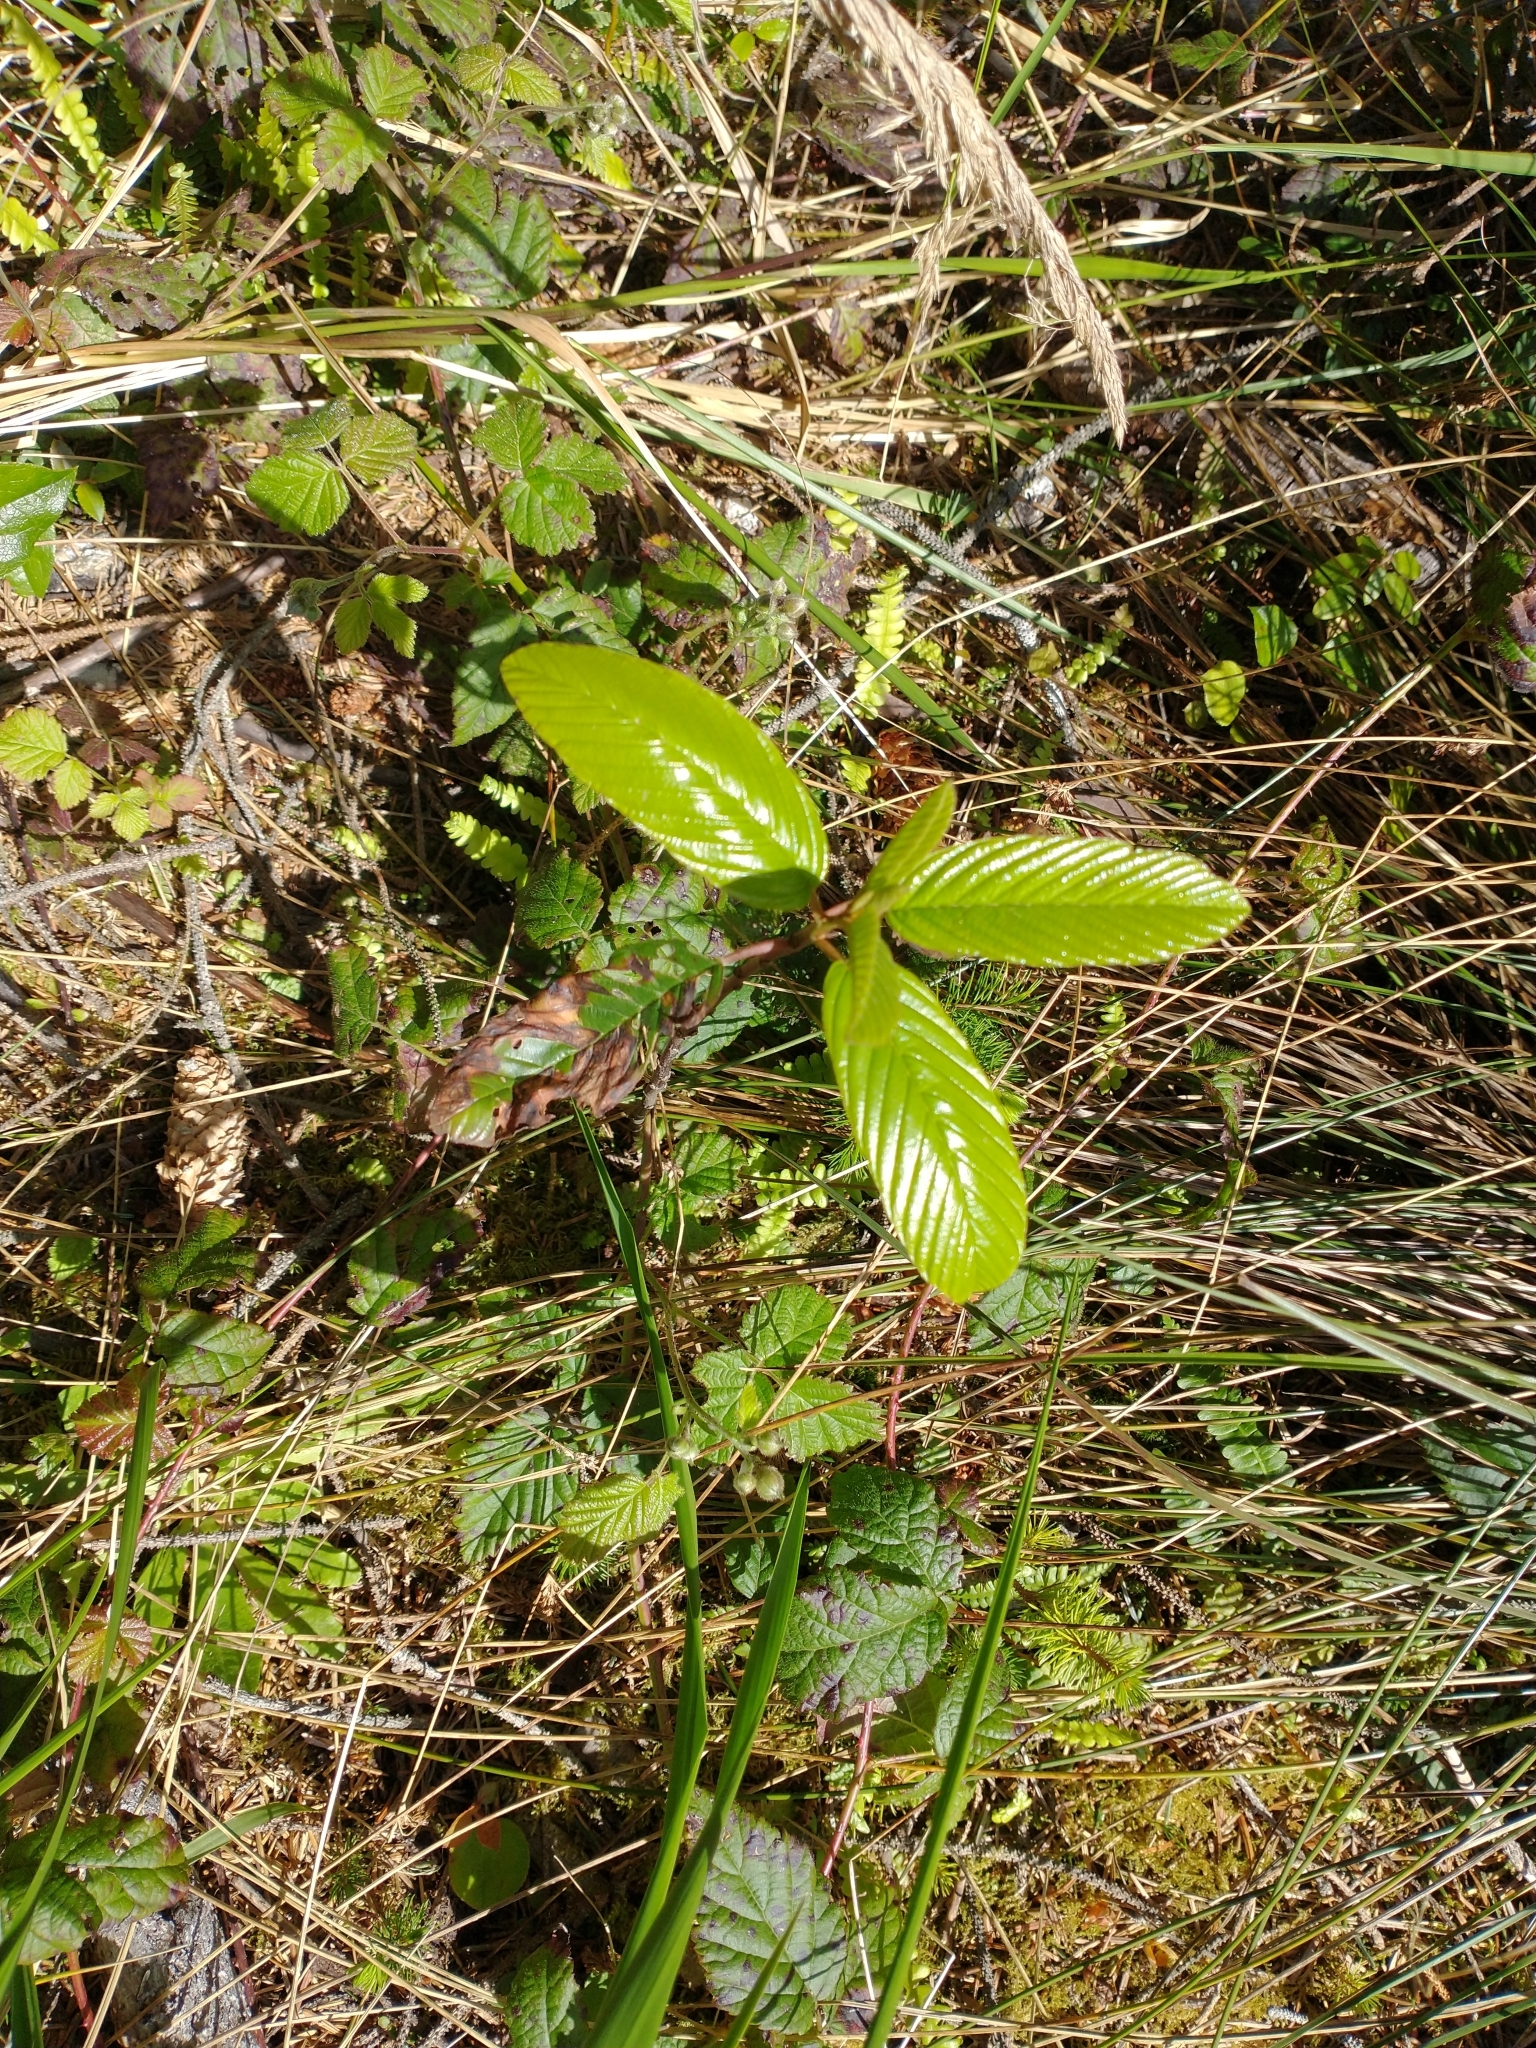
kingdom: Plantae
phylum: Tracheophyta
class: Magnoliopsida
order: Rosales
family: Rhamnaceae
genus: Frangula
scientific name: Frangula purshiana
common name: Cascara buckthorn
